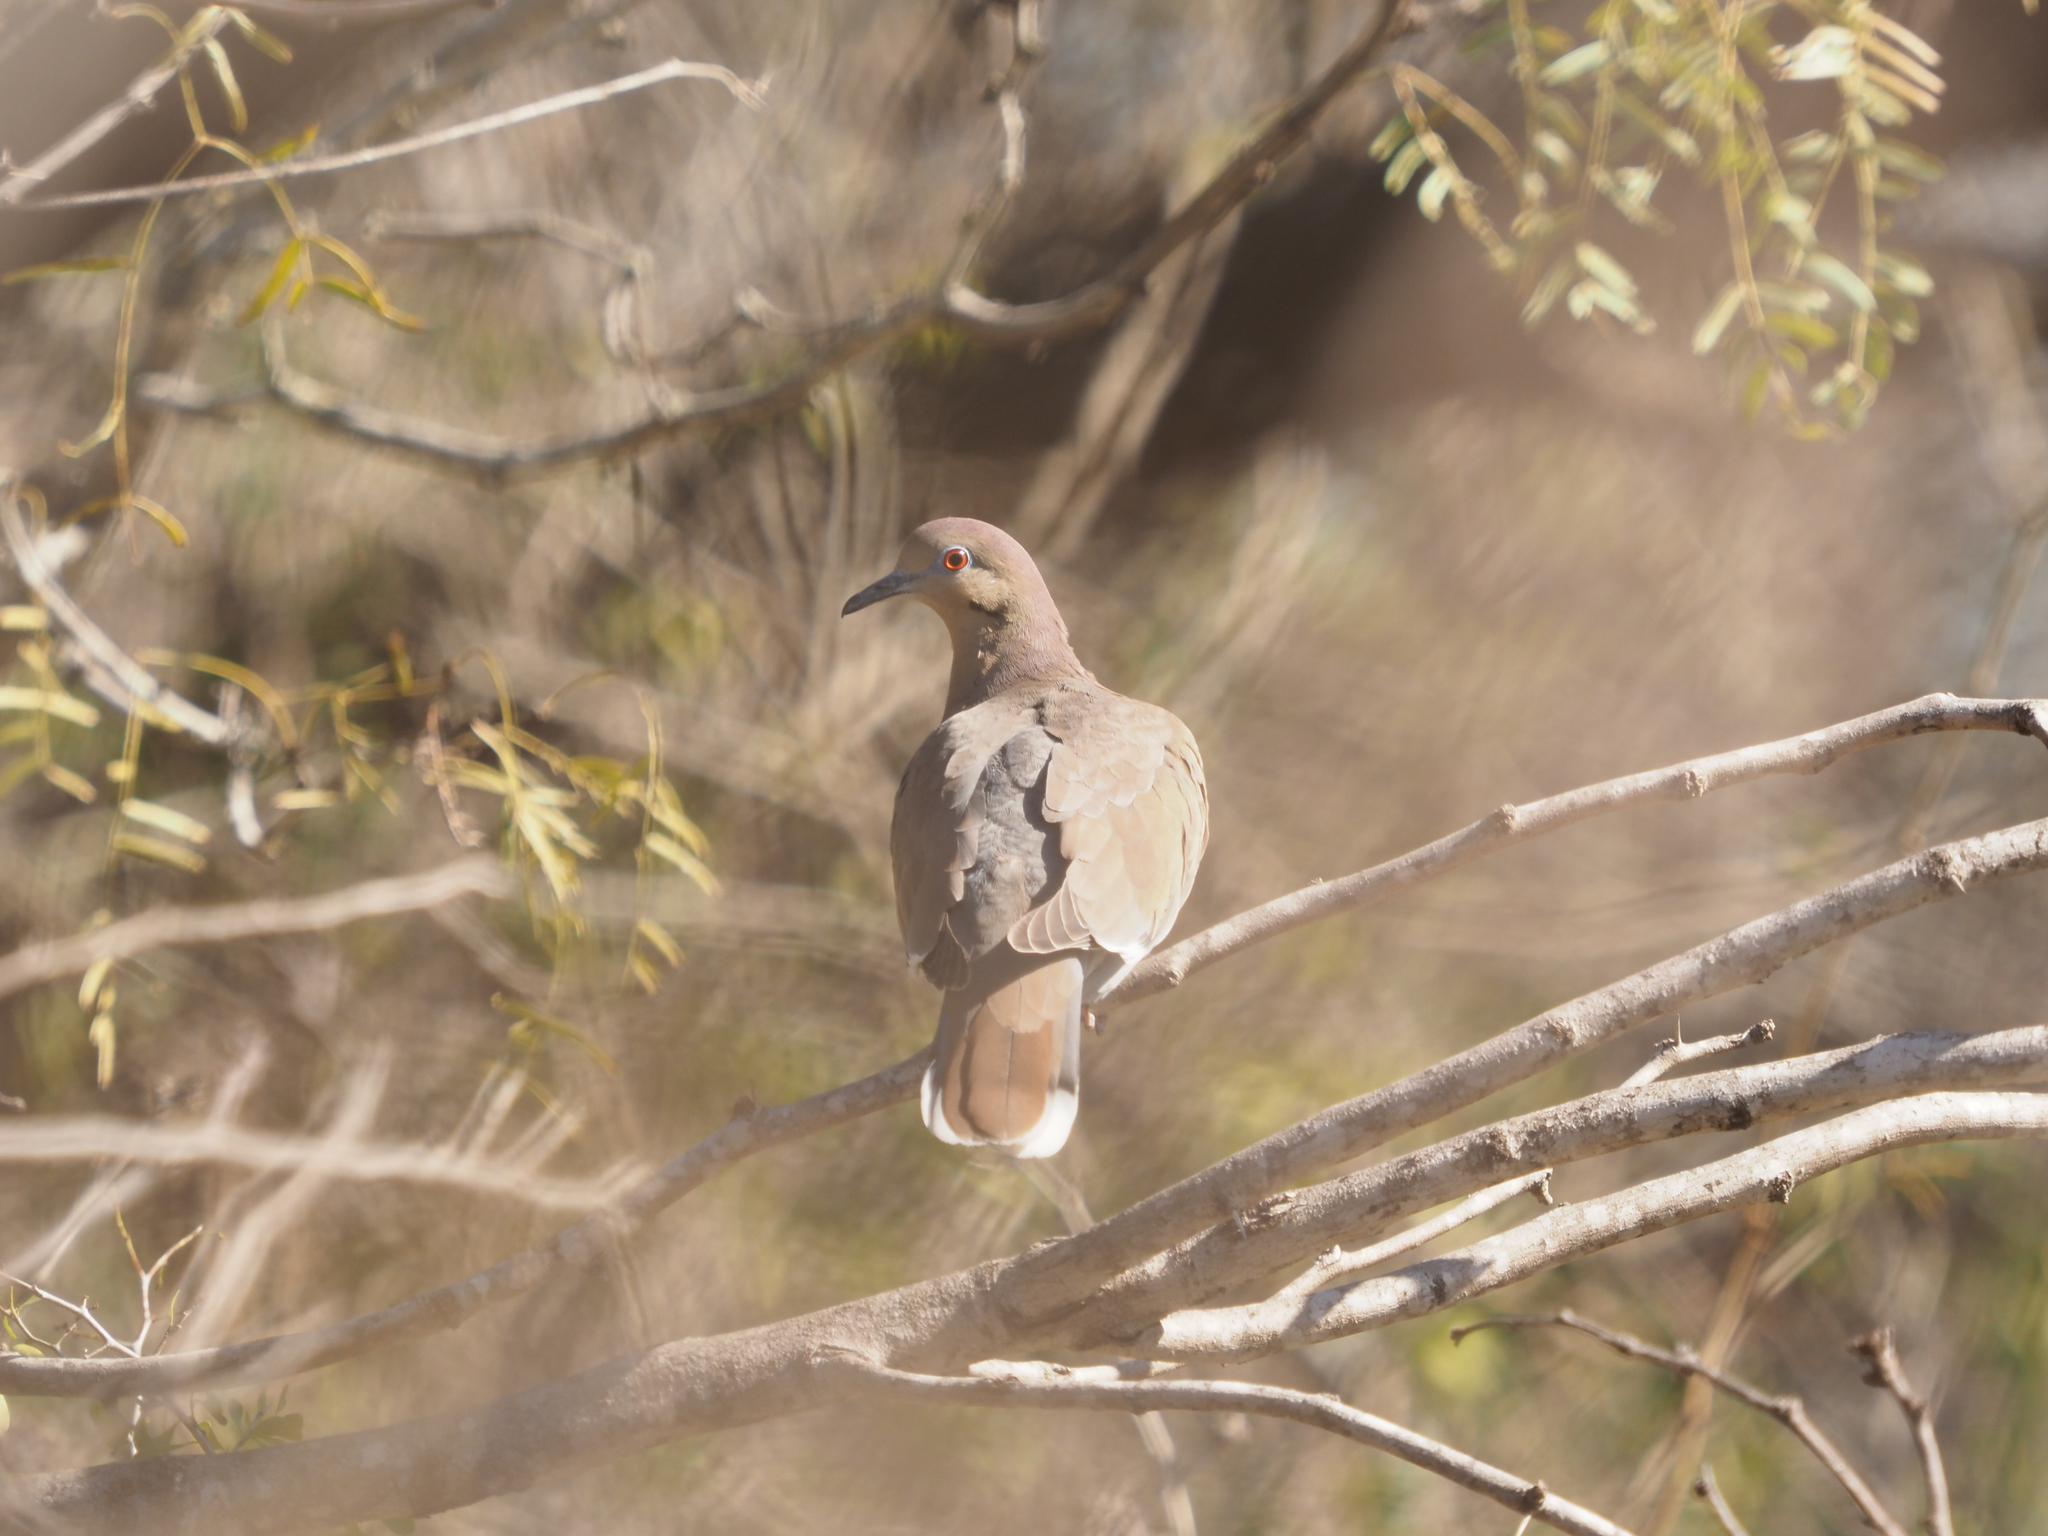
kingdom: Animalia
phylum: Chordata
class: Aves
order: Columbiformes
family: Columbidae
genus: Zenaida
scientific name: Zenaida asiatica
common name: White-winged dove
